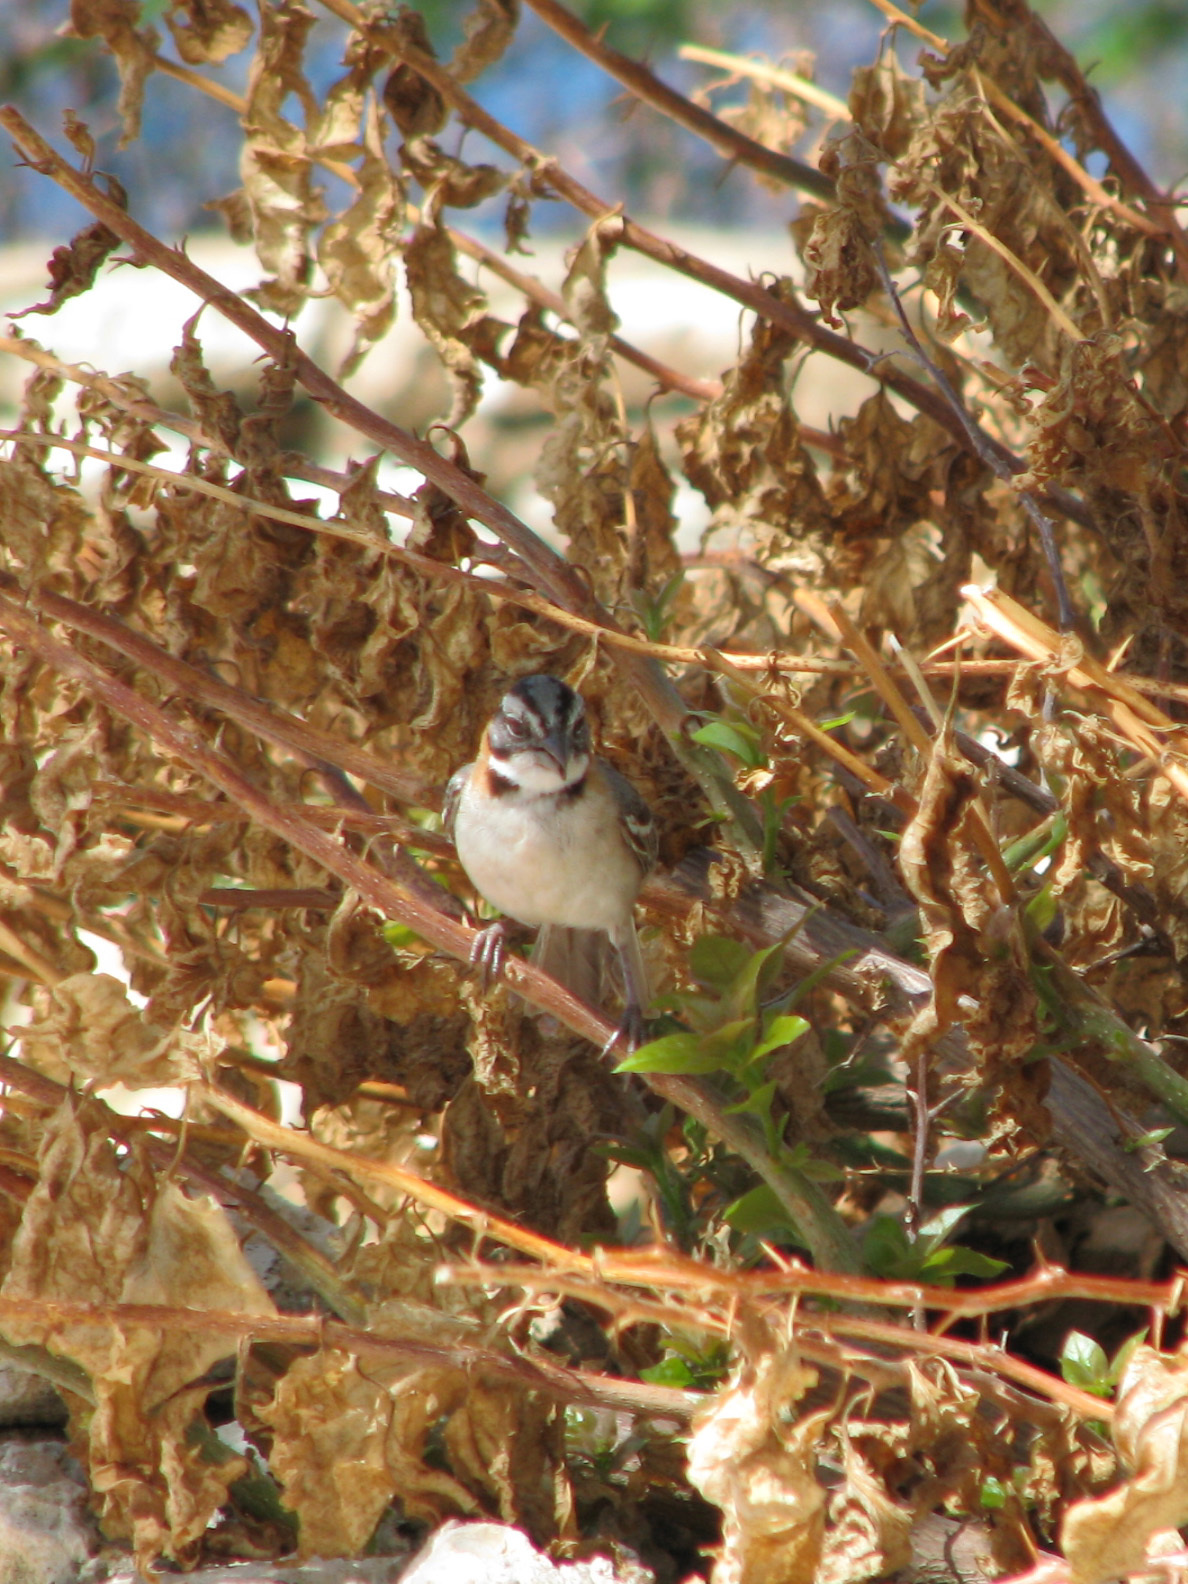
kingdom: Animalia
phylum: Chordata
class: Aves
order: Passeriformes
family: Passerellidae
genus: Zonotrichia
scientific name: Zonotrichia capensis
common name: Rufous-collared sparrow
